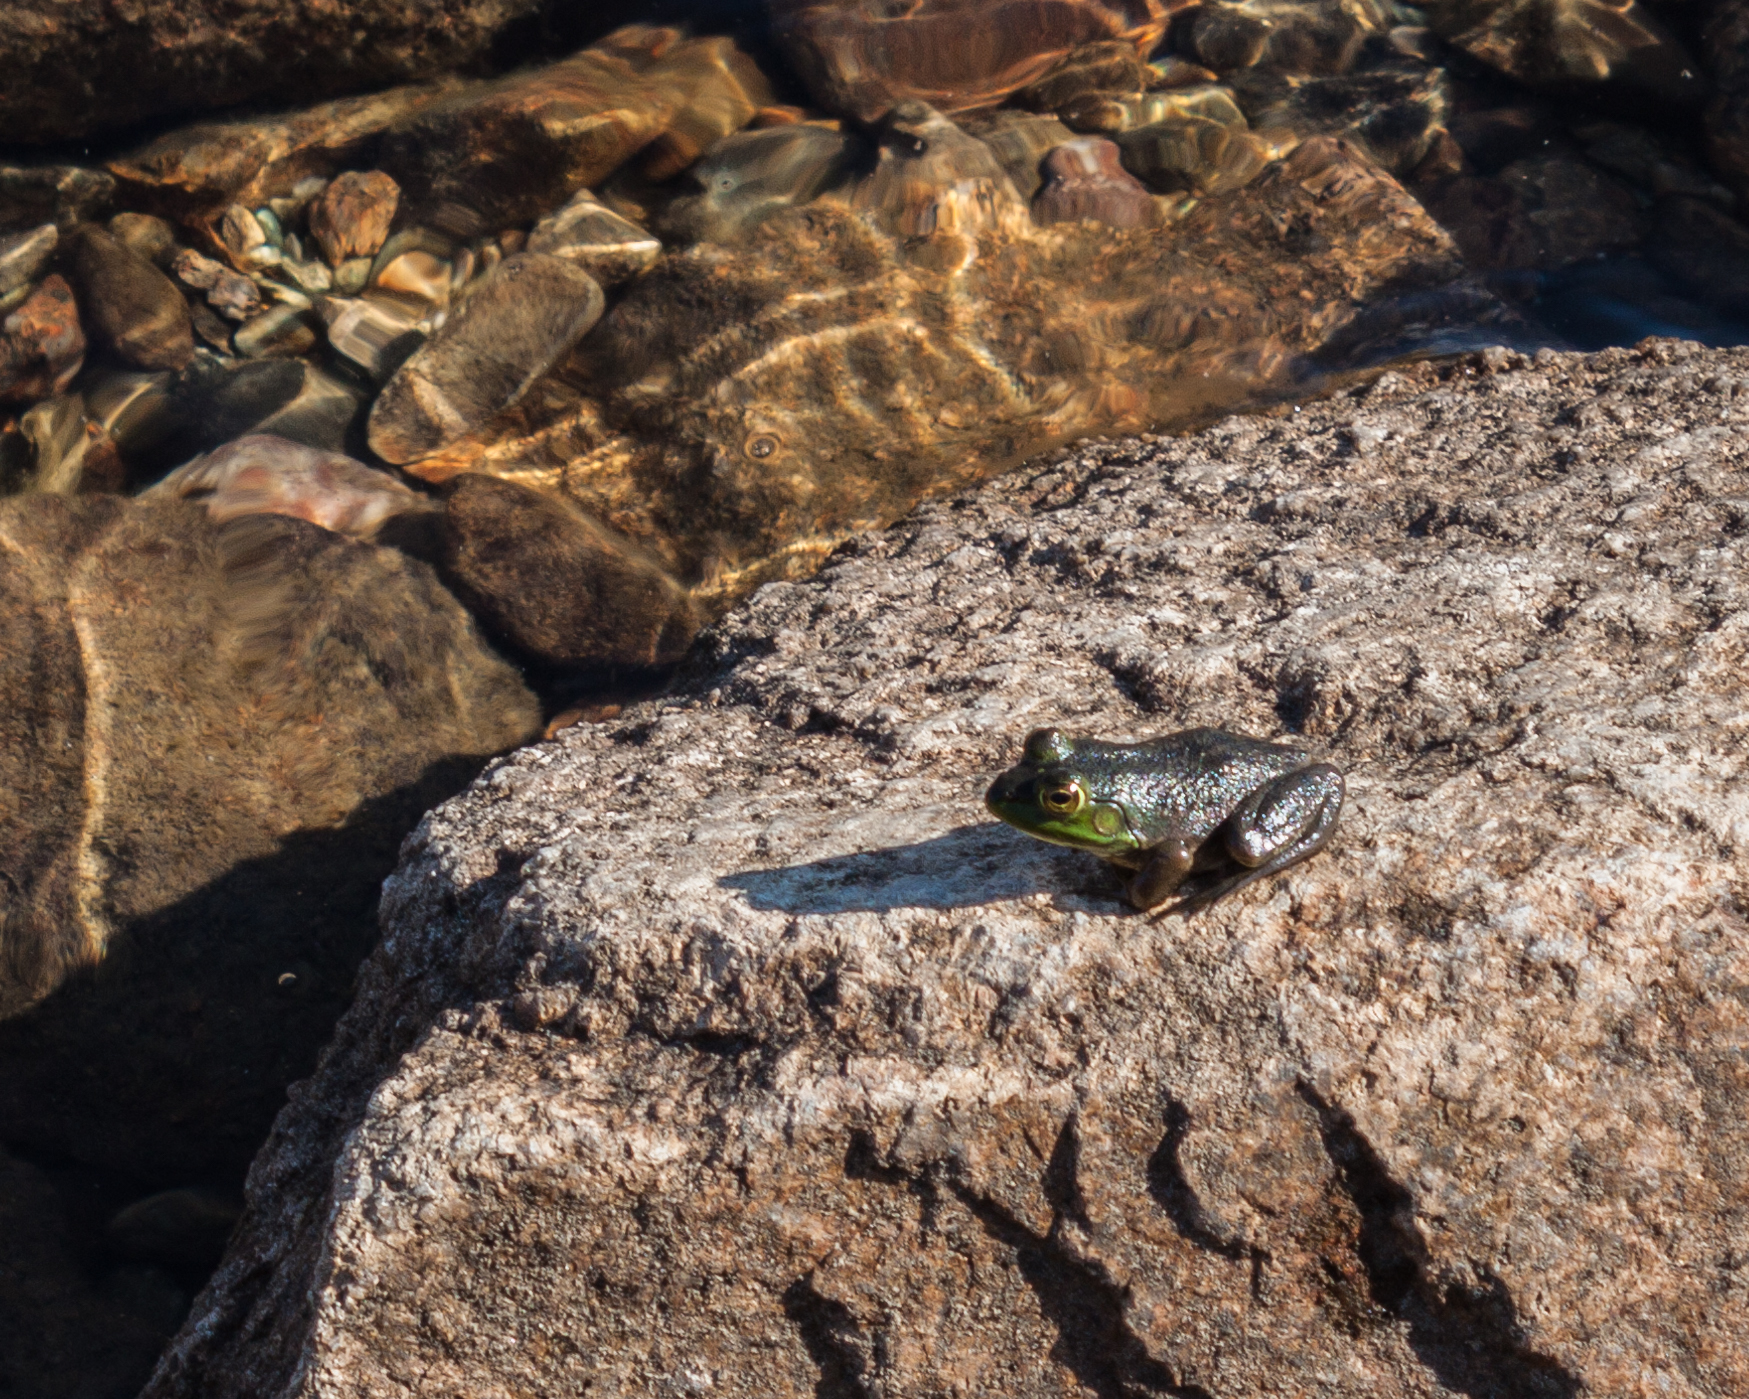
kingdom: Animalia
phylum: Chordata
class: Amphibia
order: Anura
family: Ranidae
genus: Lithobates
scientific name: Lithobates catesbeianus
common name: American bullfrog
